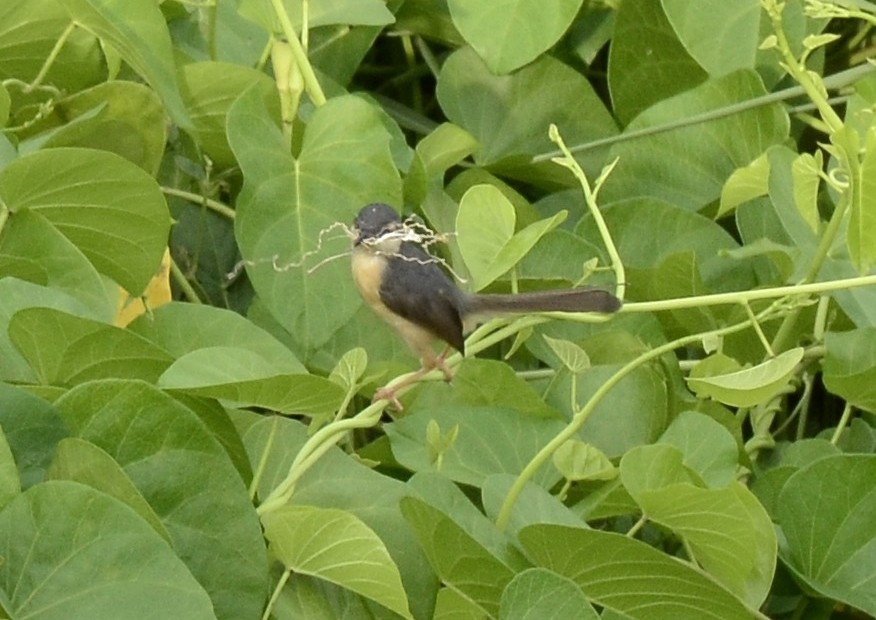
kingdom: Animalia
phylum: Chordata
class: Aves
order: Passeriformes
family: Cisticolidae
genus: Prinia
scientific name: Prinia socialis
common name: Ashy prinia
